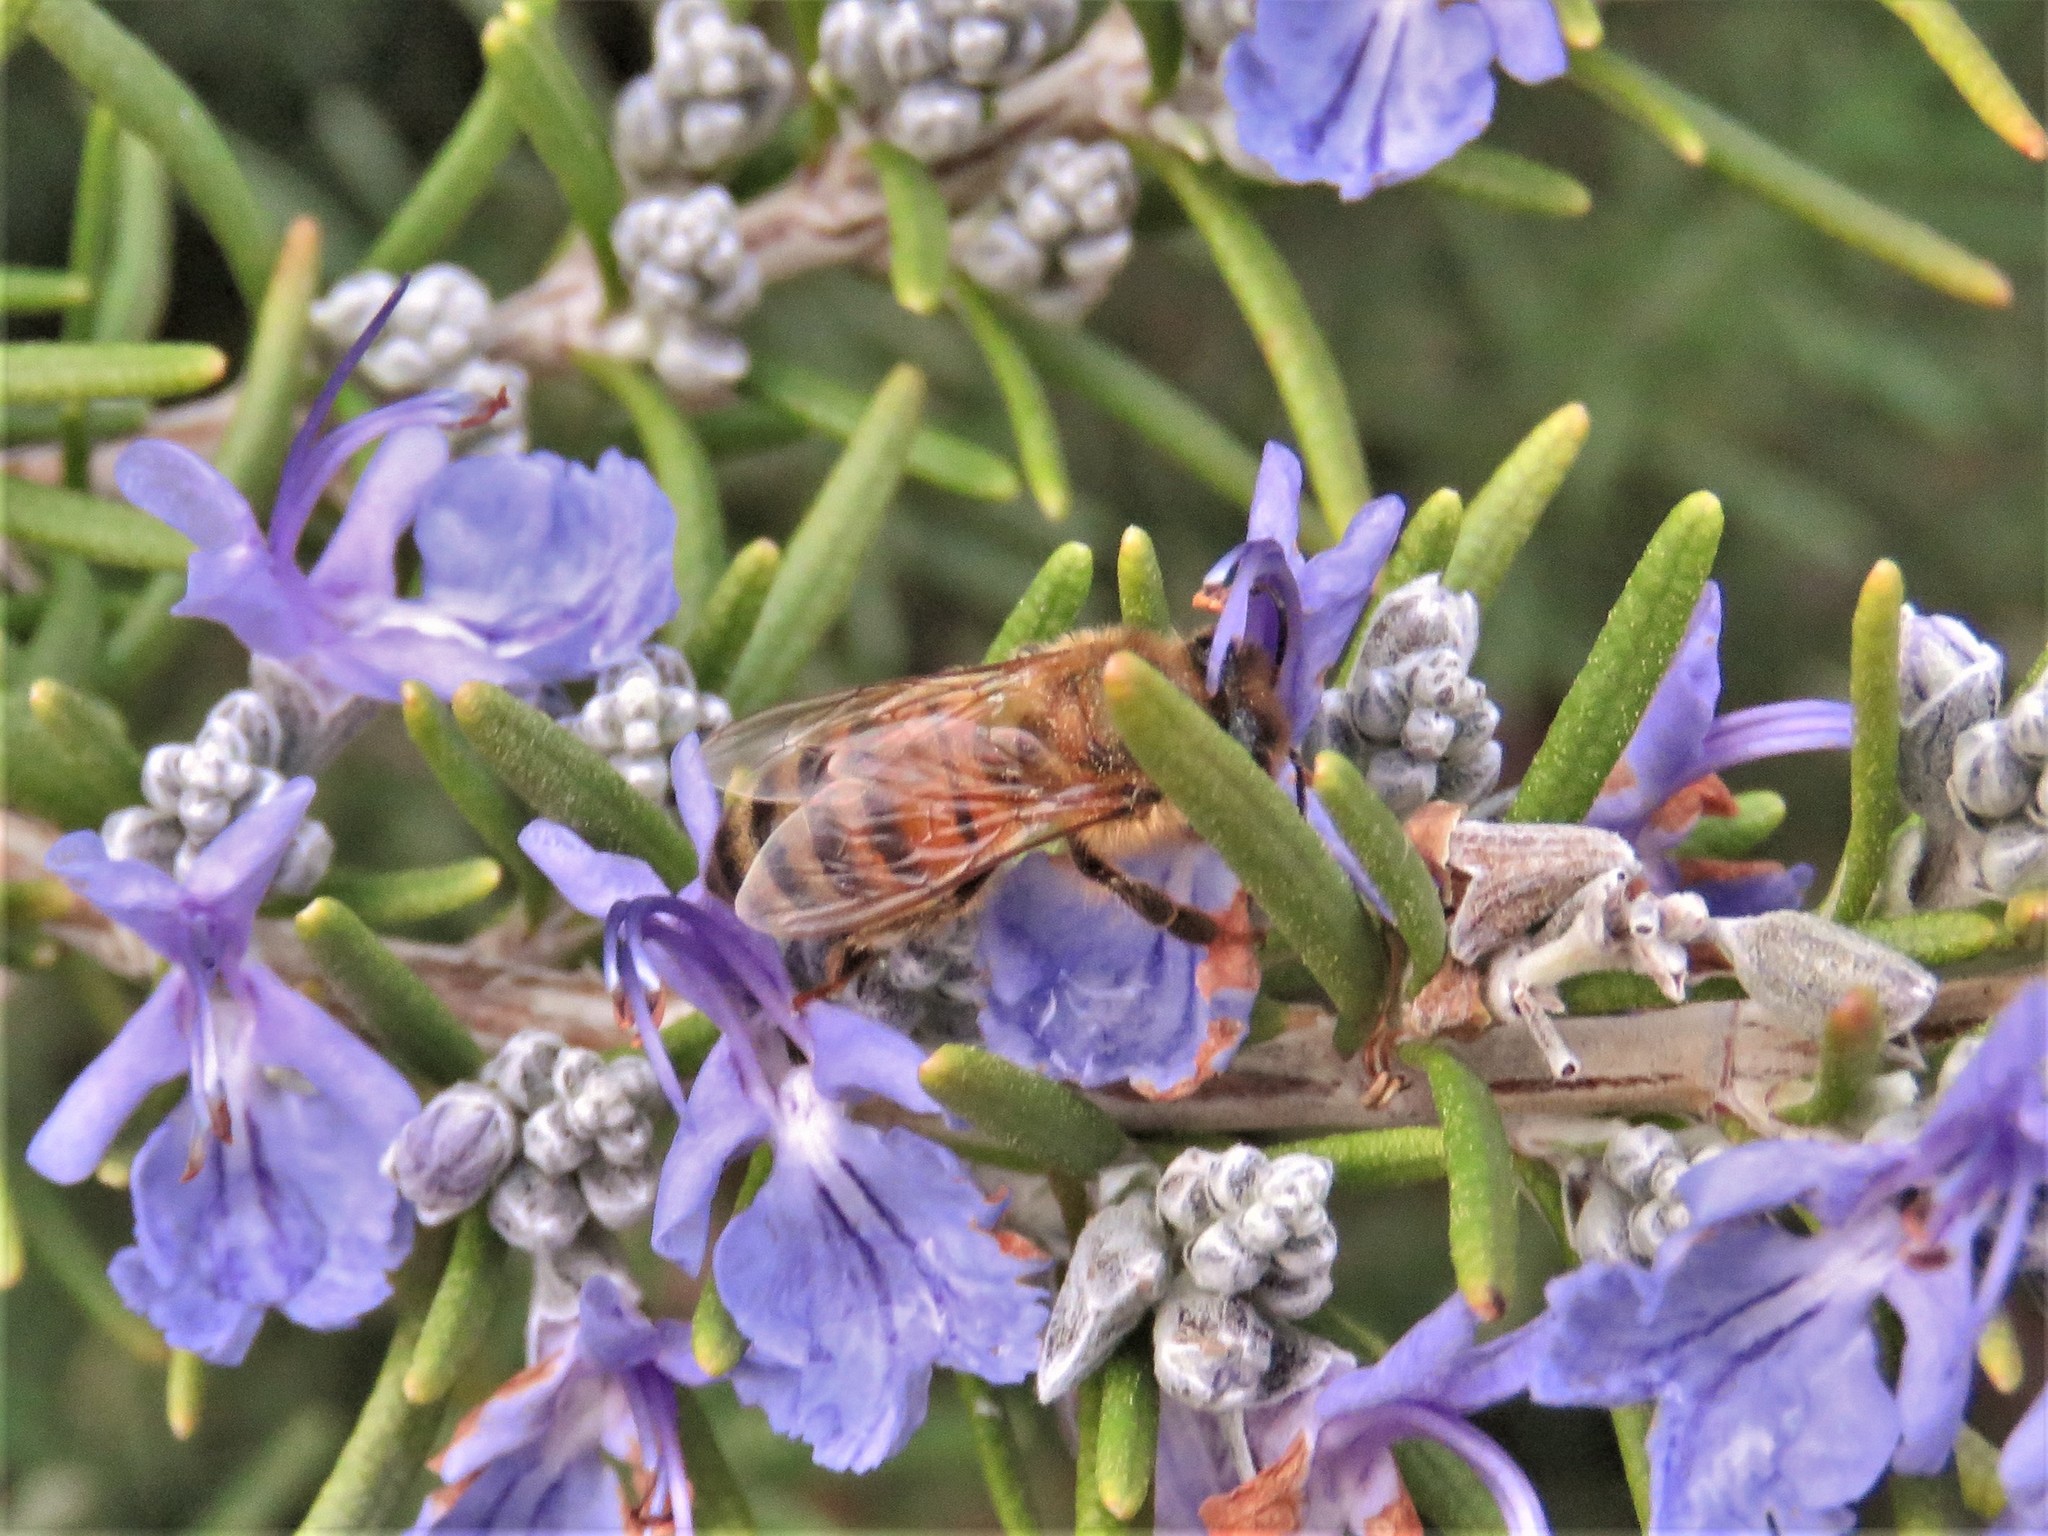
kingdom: Animalia
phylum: Arthropoda
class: Insecta
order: Hymenoptera
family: Apidae
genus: Apis
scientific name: Apis mellifera
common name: Honey bee
